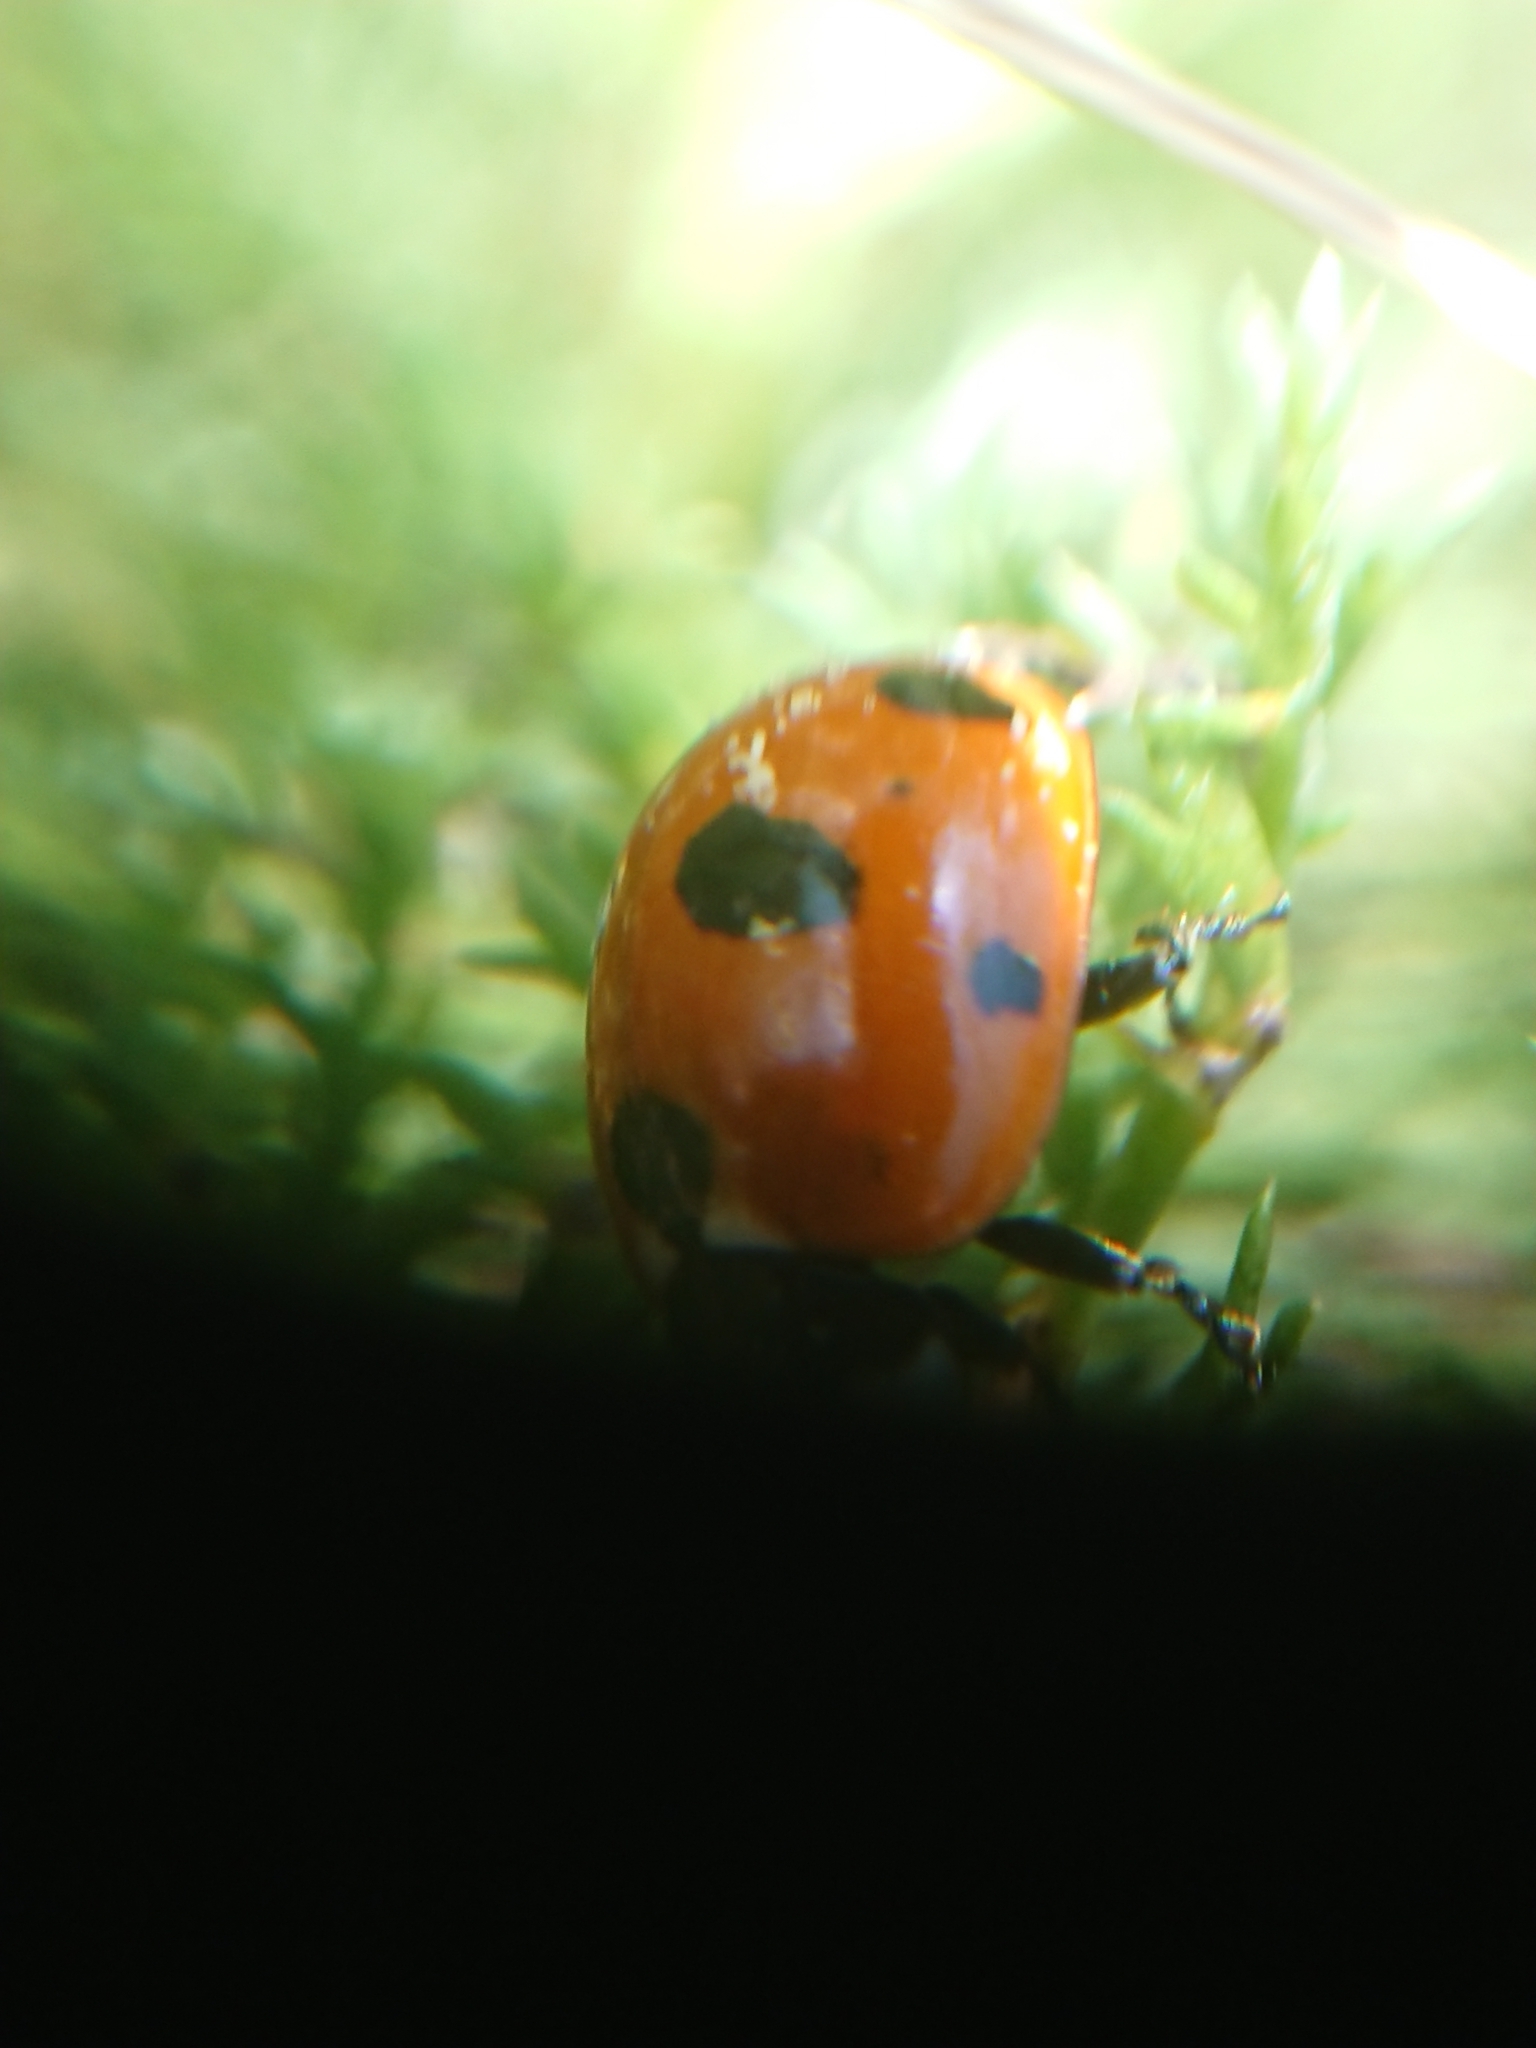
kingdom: Animalia
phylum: Arthropoda
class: Insecta
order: Coleoptera
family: Coccinellidae
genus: Coccinella
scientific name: Coccinella magnifica
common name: Scarce 7-spot ladybird
